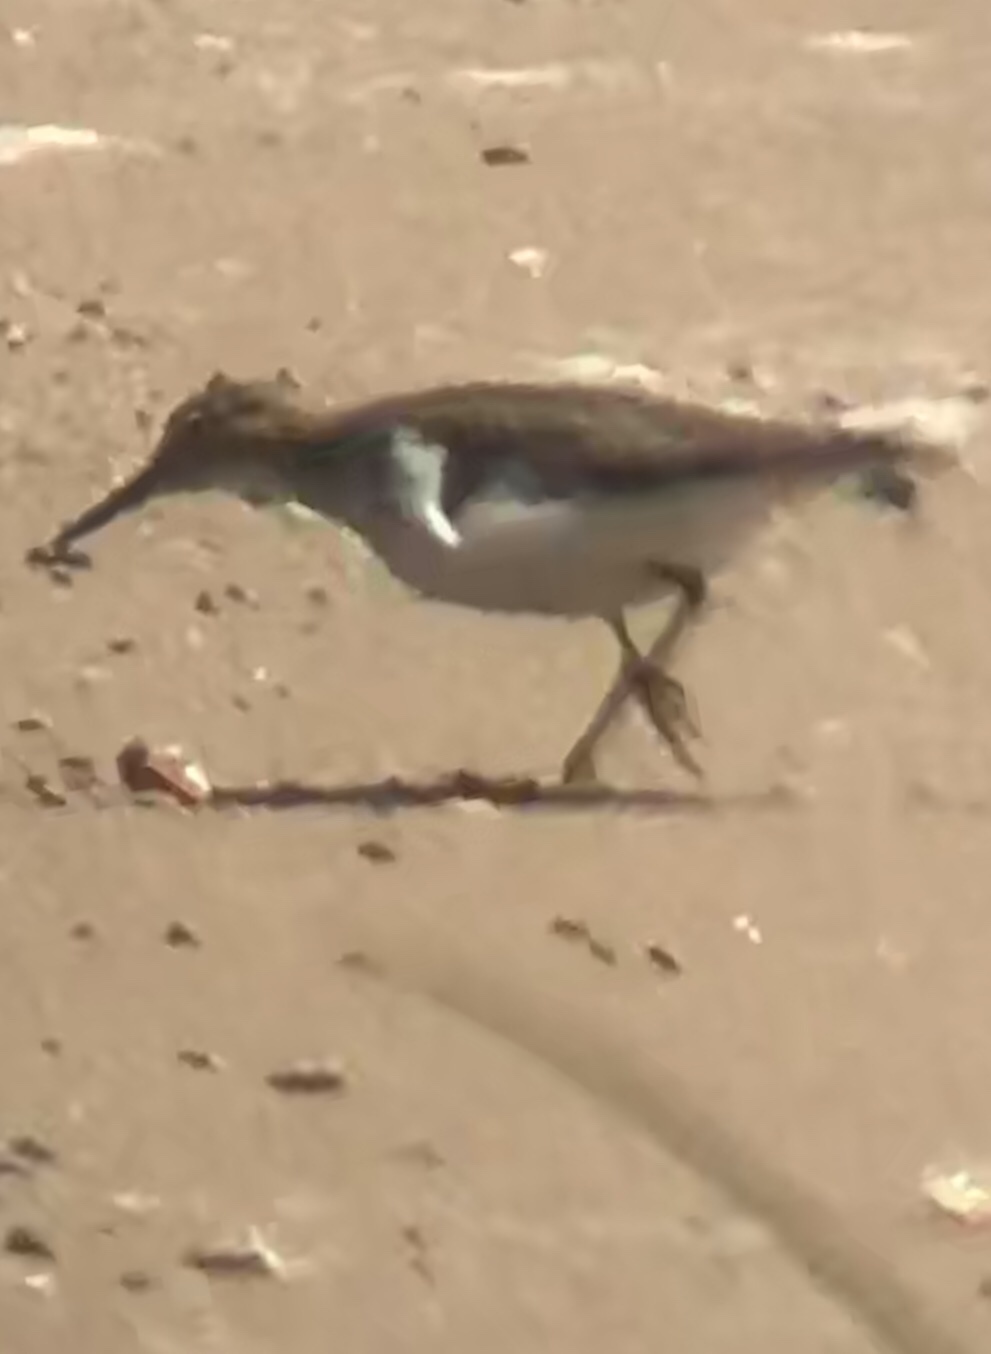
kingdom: Animalia
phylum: Chordata
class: Aves
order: Charadriiformes
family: Scolopacidae
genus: Actitis
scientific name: Actitis macularius
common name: Spotted sandpiper
